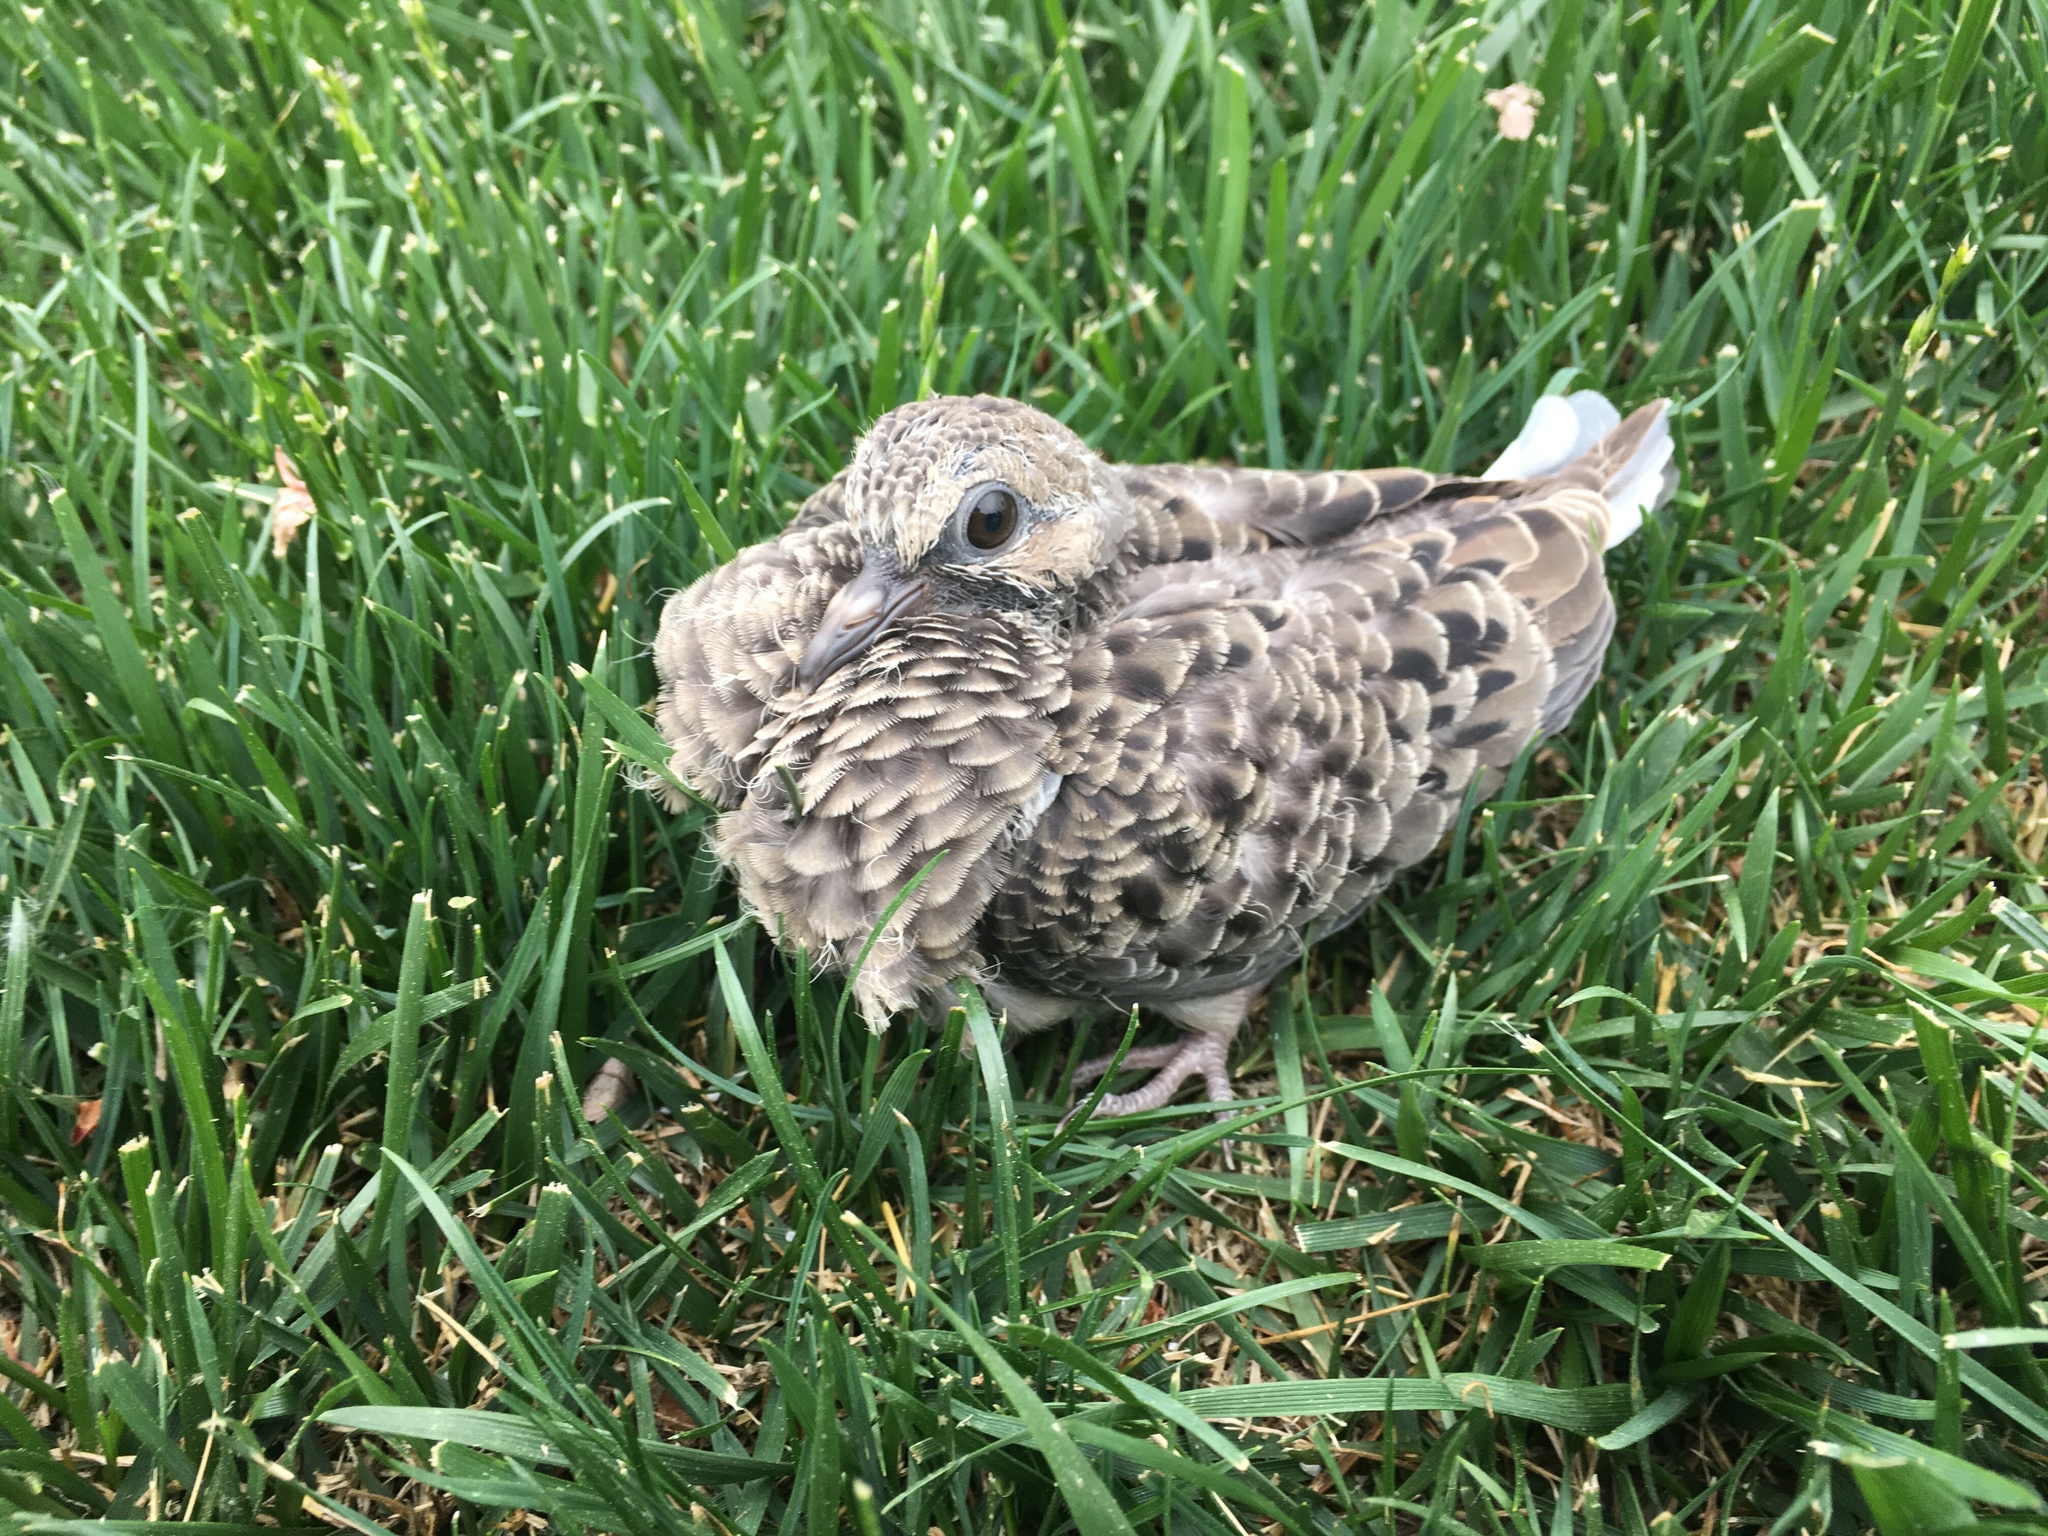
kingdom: Animalia
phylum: Chordata
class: Aves
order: Columbiformes
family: Columbidae
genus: Zenaida
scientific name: Zenaida macroura
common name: Mourning dove
